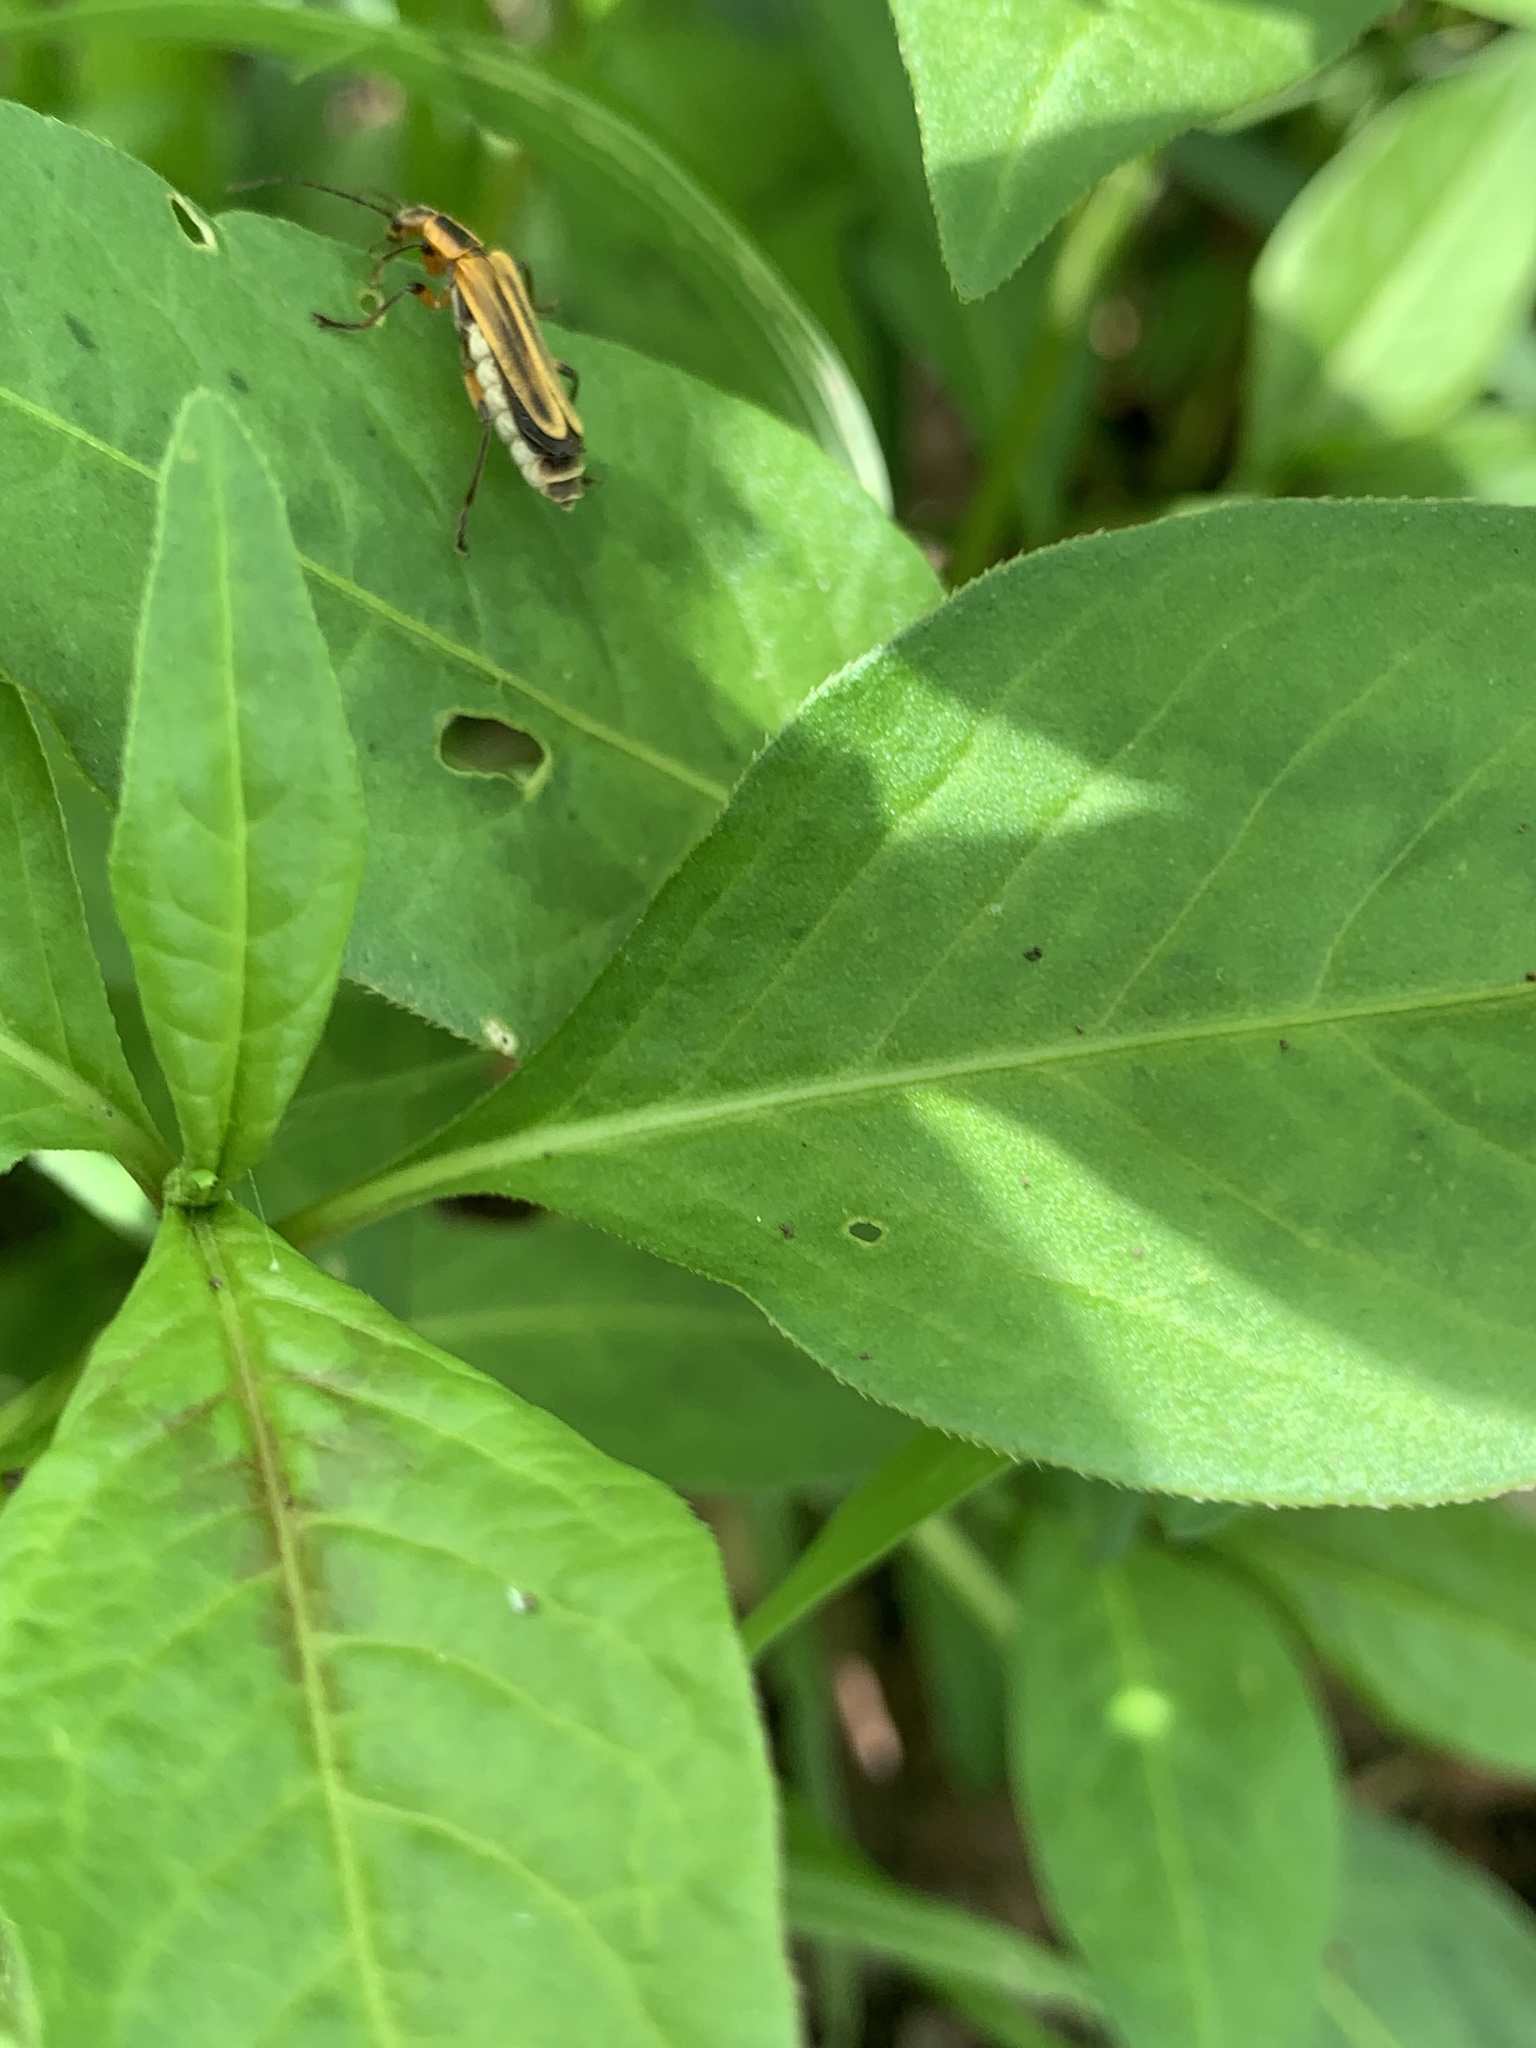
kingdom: Animalia
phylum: Arthropoda
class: Insecta
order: Coleoptera
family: Cantharidae
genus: Chauliognathus
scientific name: Chauliognathus marginatus
